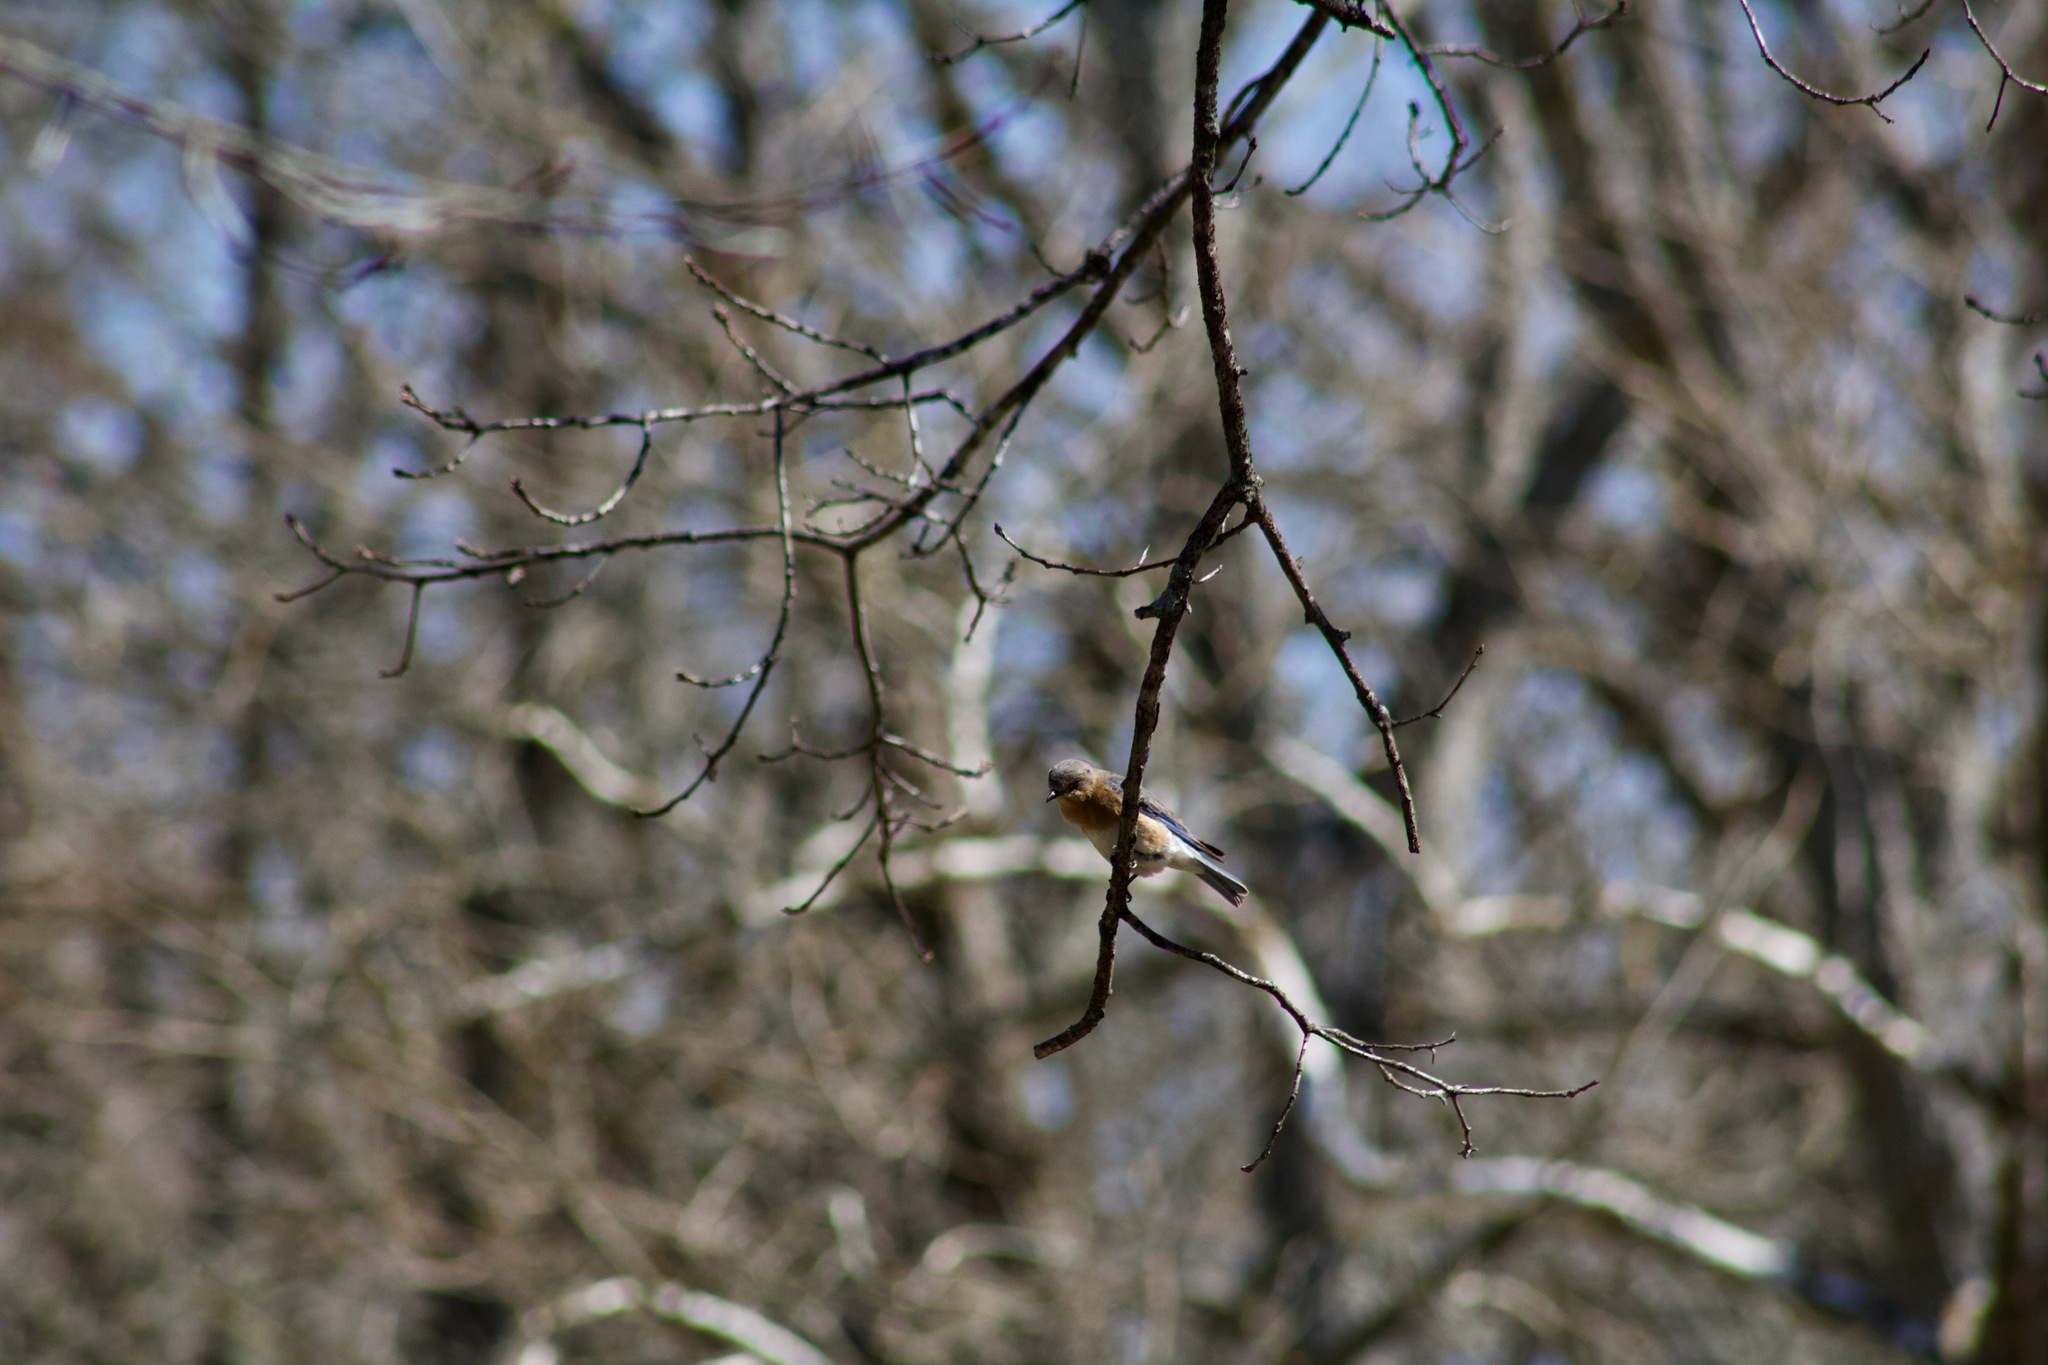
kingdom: Animalia
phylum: Chordata
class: Aves
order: Passeriformes
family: Turdidae
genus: Sialia
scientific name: Sialia sialis
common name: Eastern bluebird
